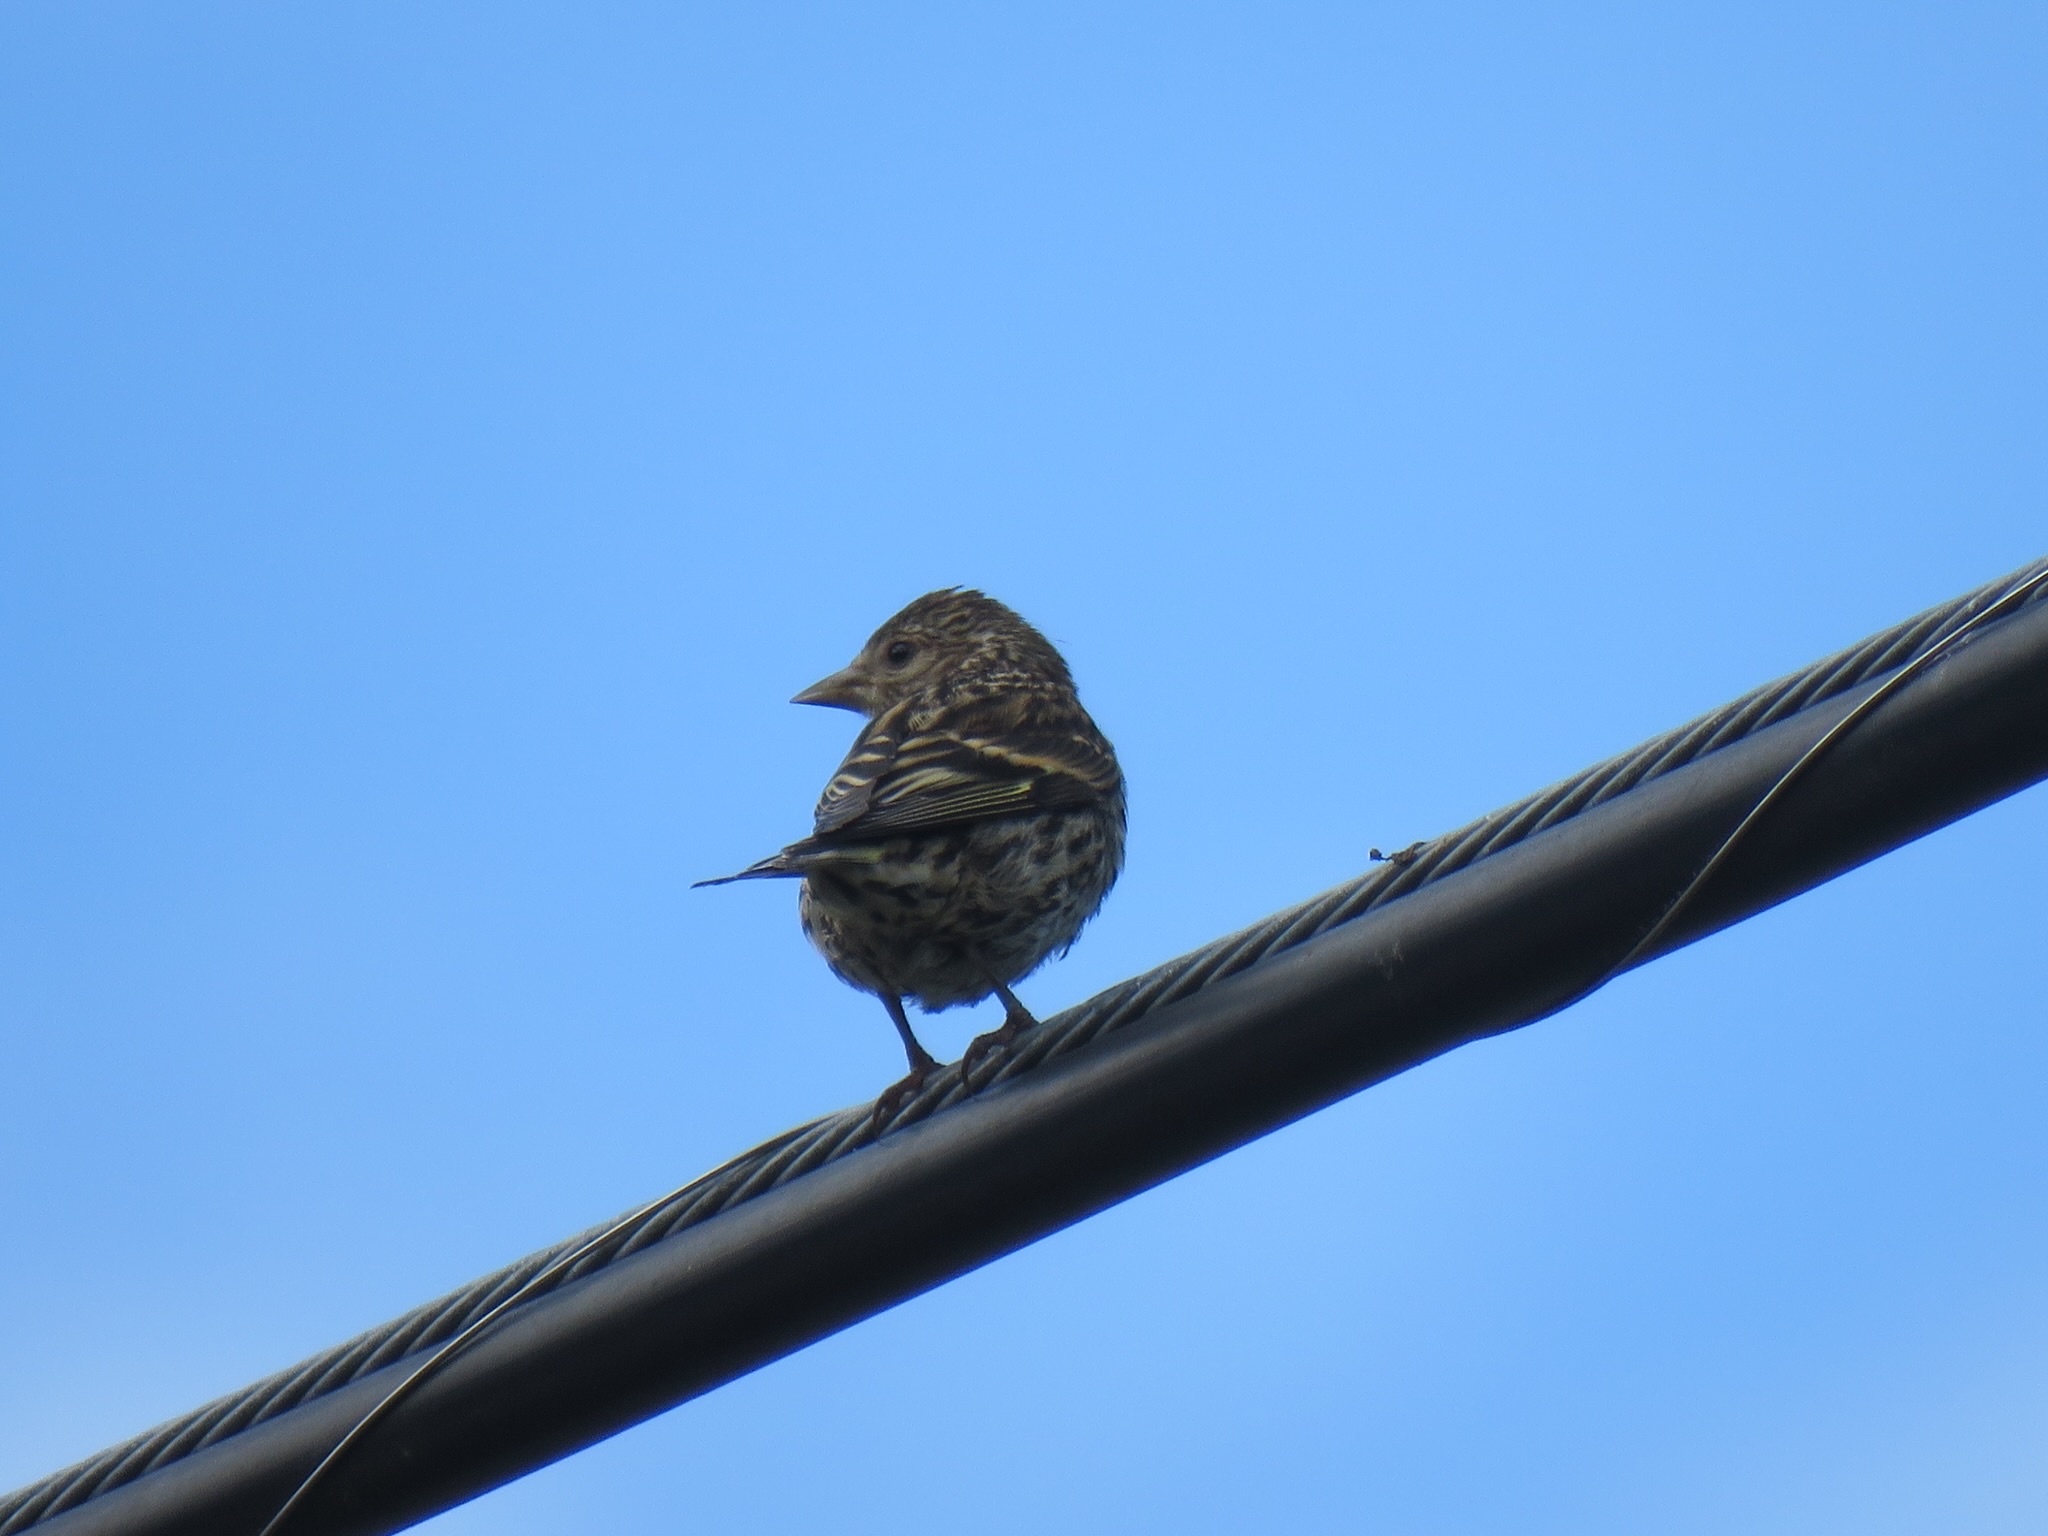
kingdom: Animalia
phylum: Chordata
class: Aves
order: Passeriformes
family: Fringillidae
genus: Spinus
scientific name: Spinus pinus
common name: Pine siskin
